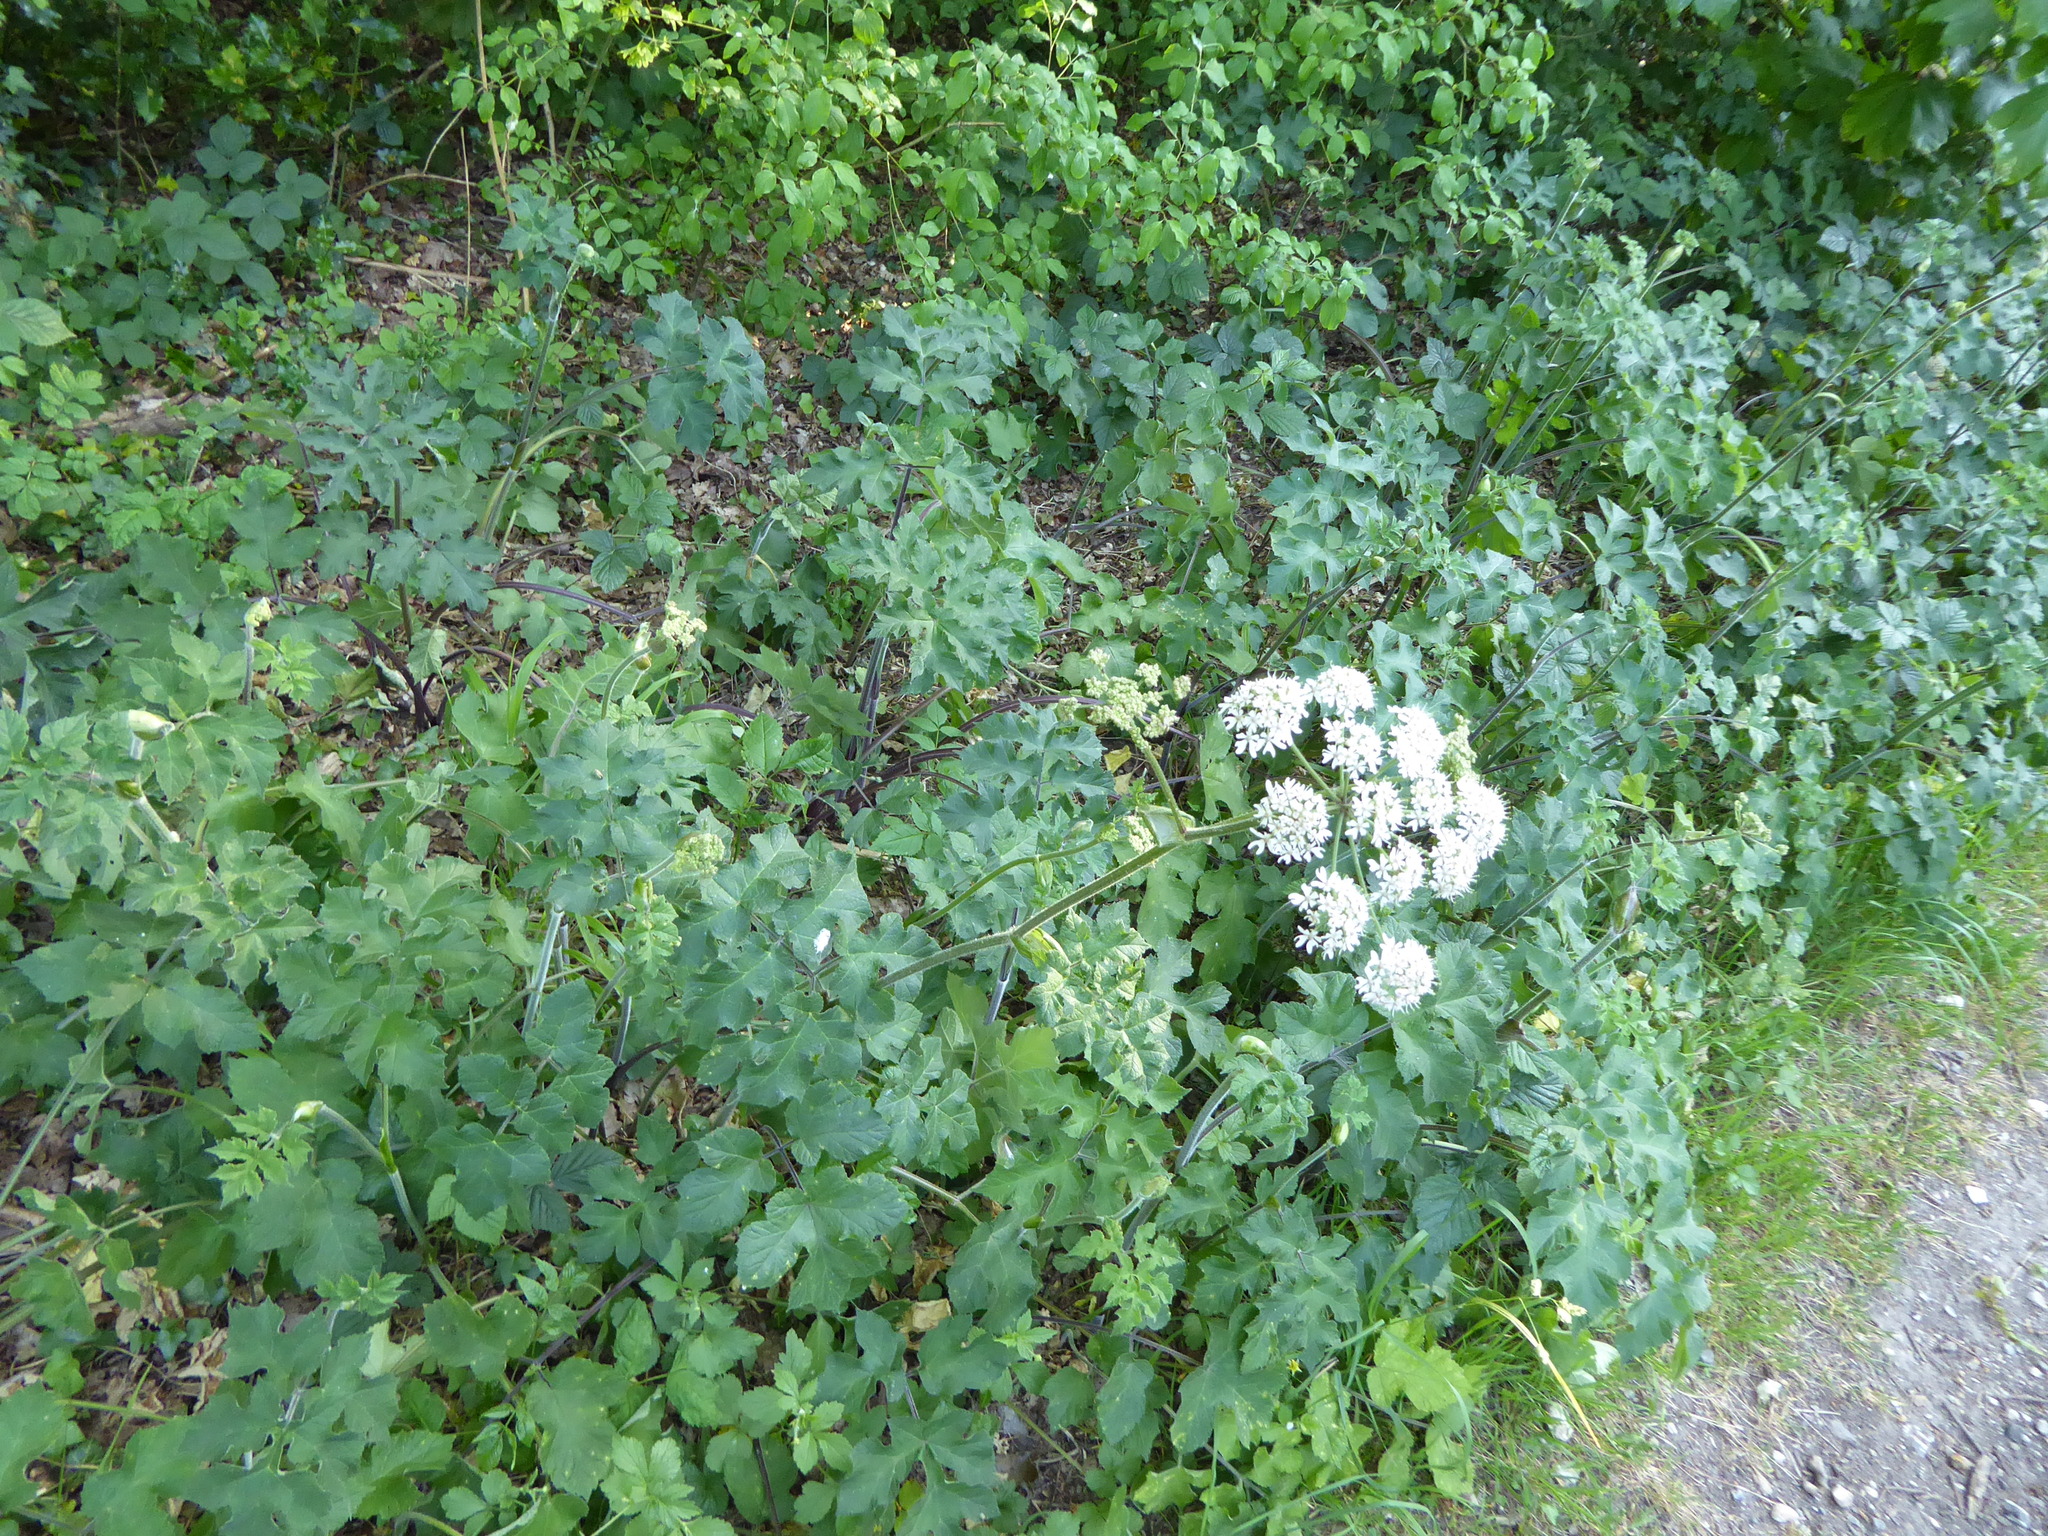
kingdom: Plantae
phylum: Tracheophyta
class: Magnoliopsida
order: Apiales
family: Apiaceae
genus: Heracleum
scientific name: Heracleum sphondylium
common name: Hogweed
